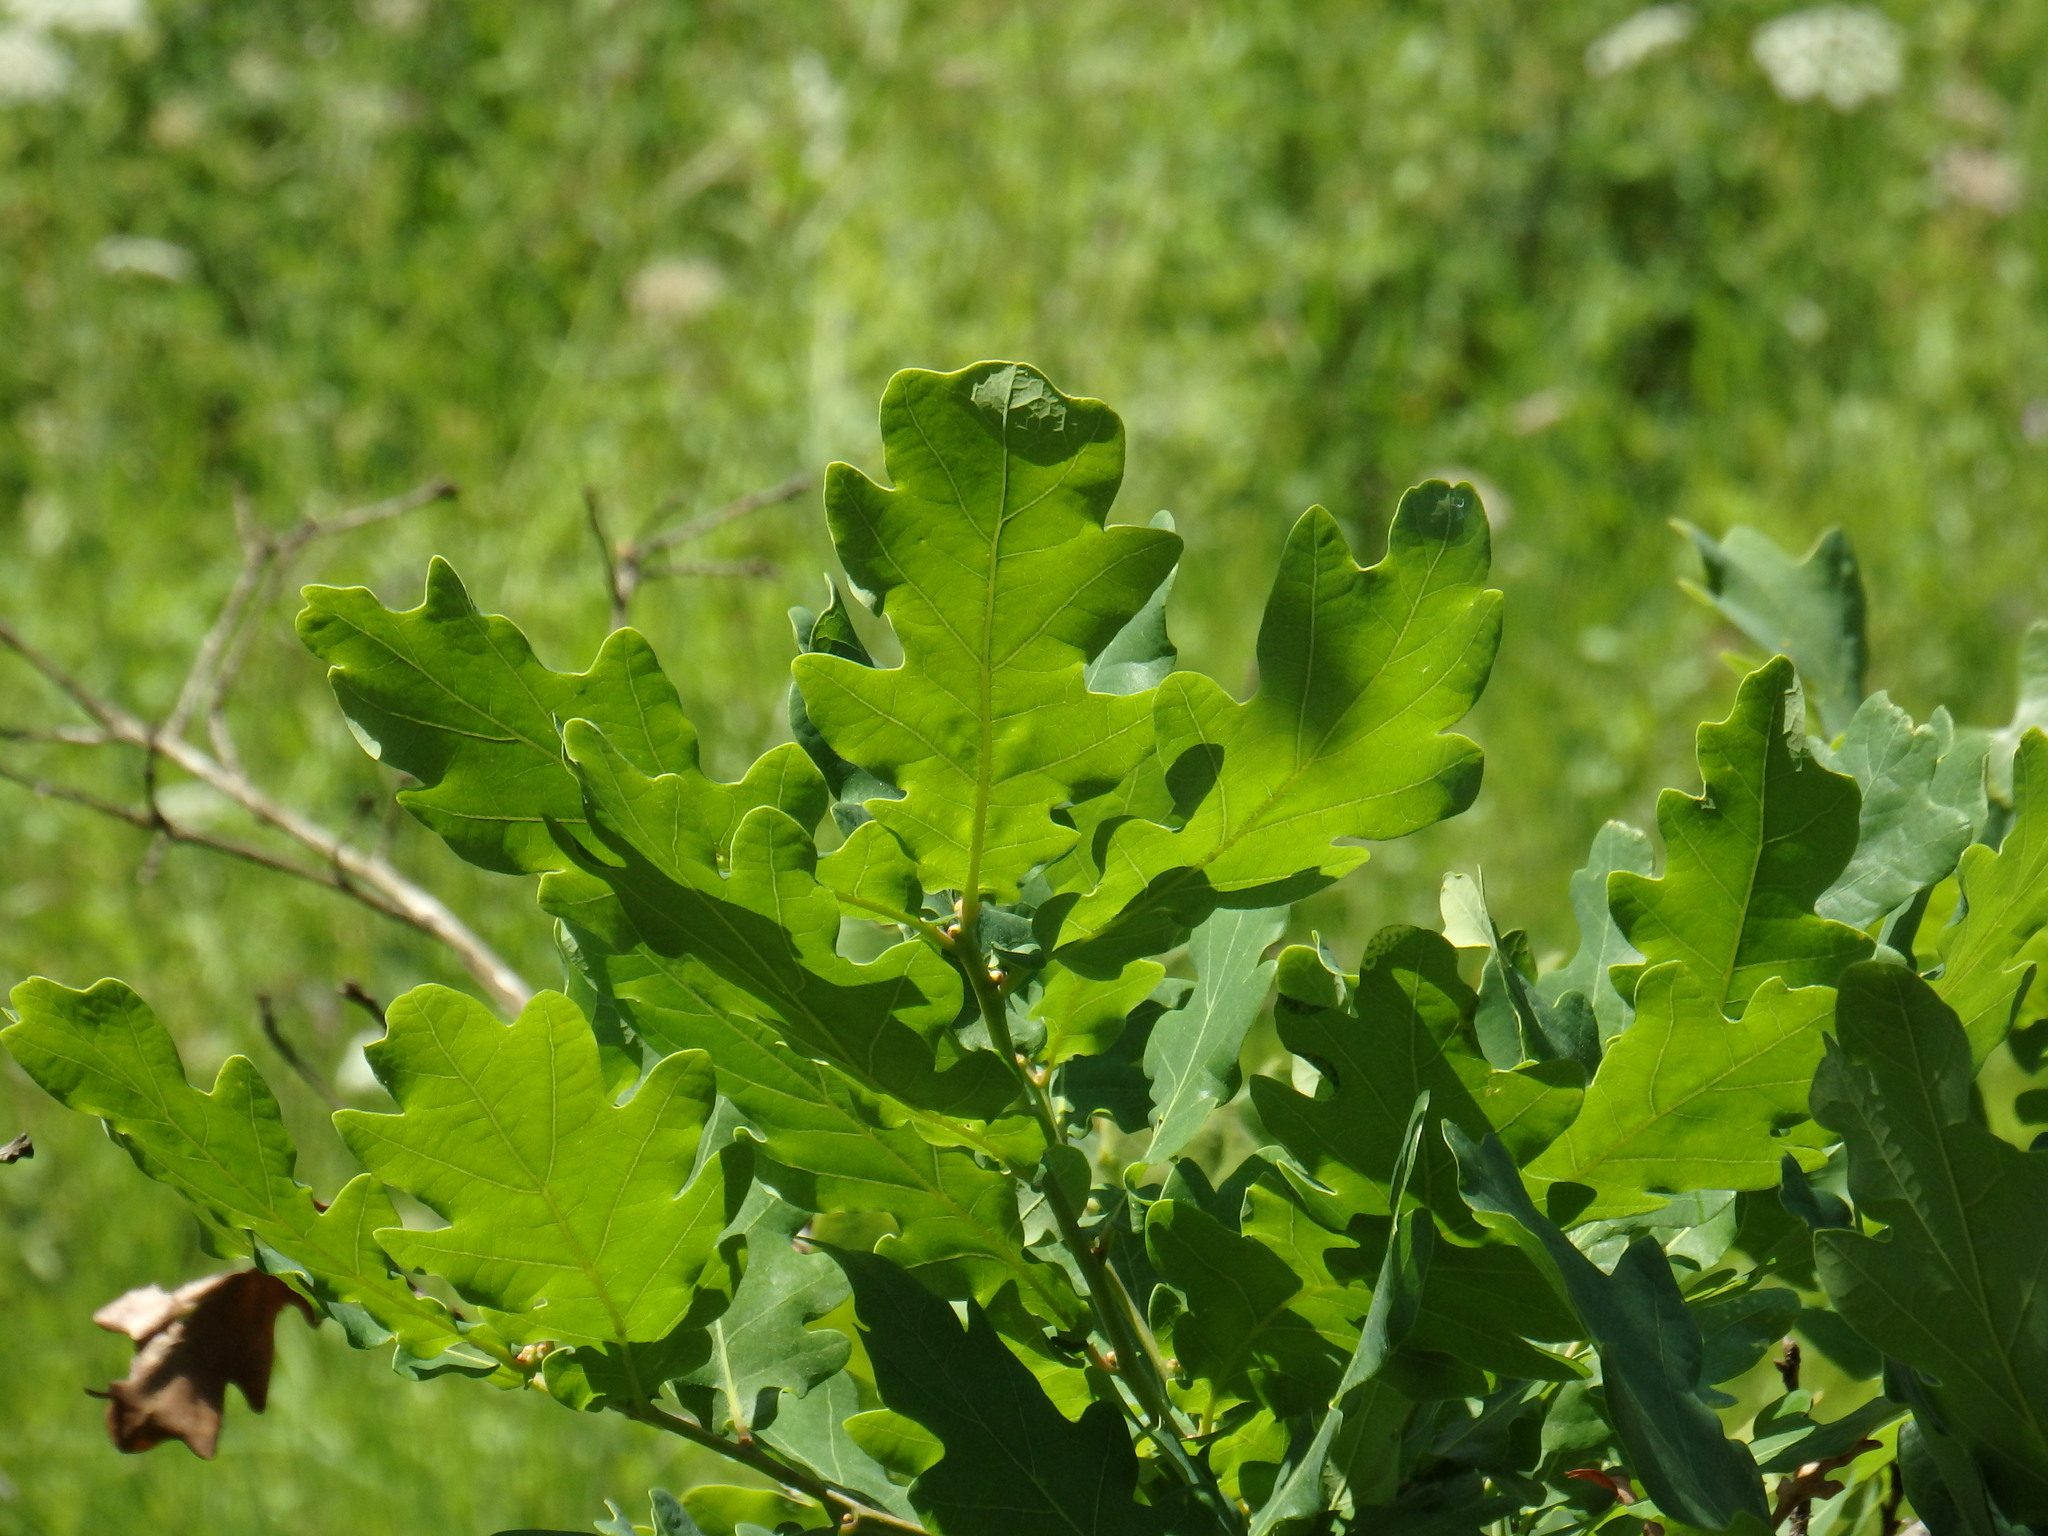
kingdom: Plantae
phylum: Tracheophyta
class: Magnoliopsida
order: Fagales
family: Fagaceae
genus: Quercus
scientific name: Quercus orocantabrica
